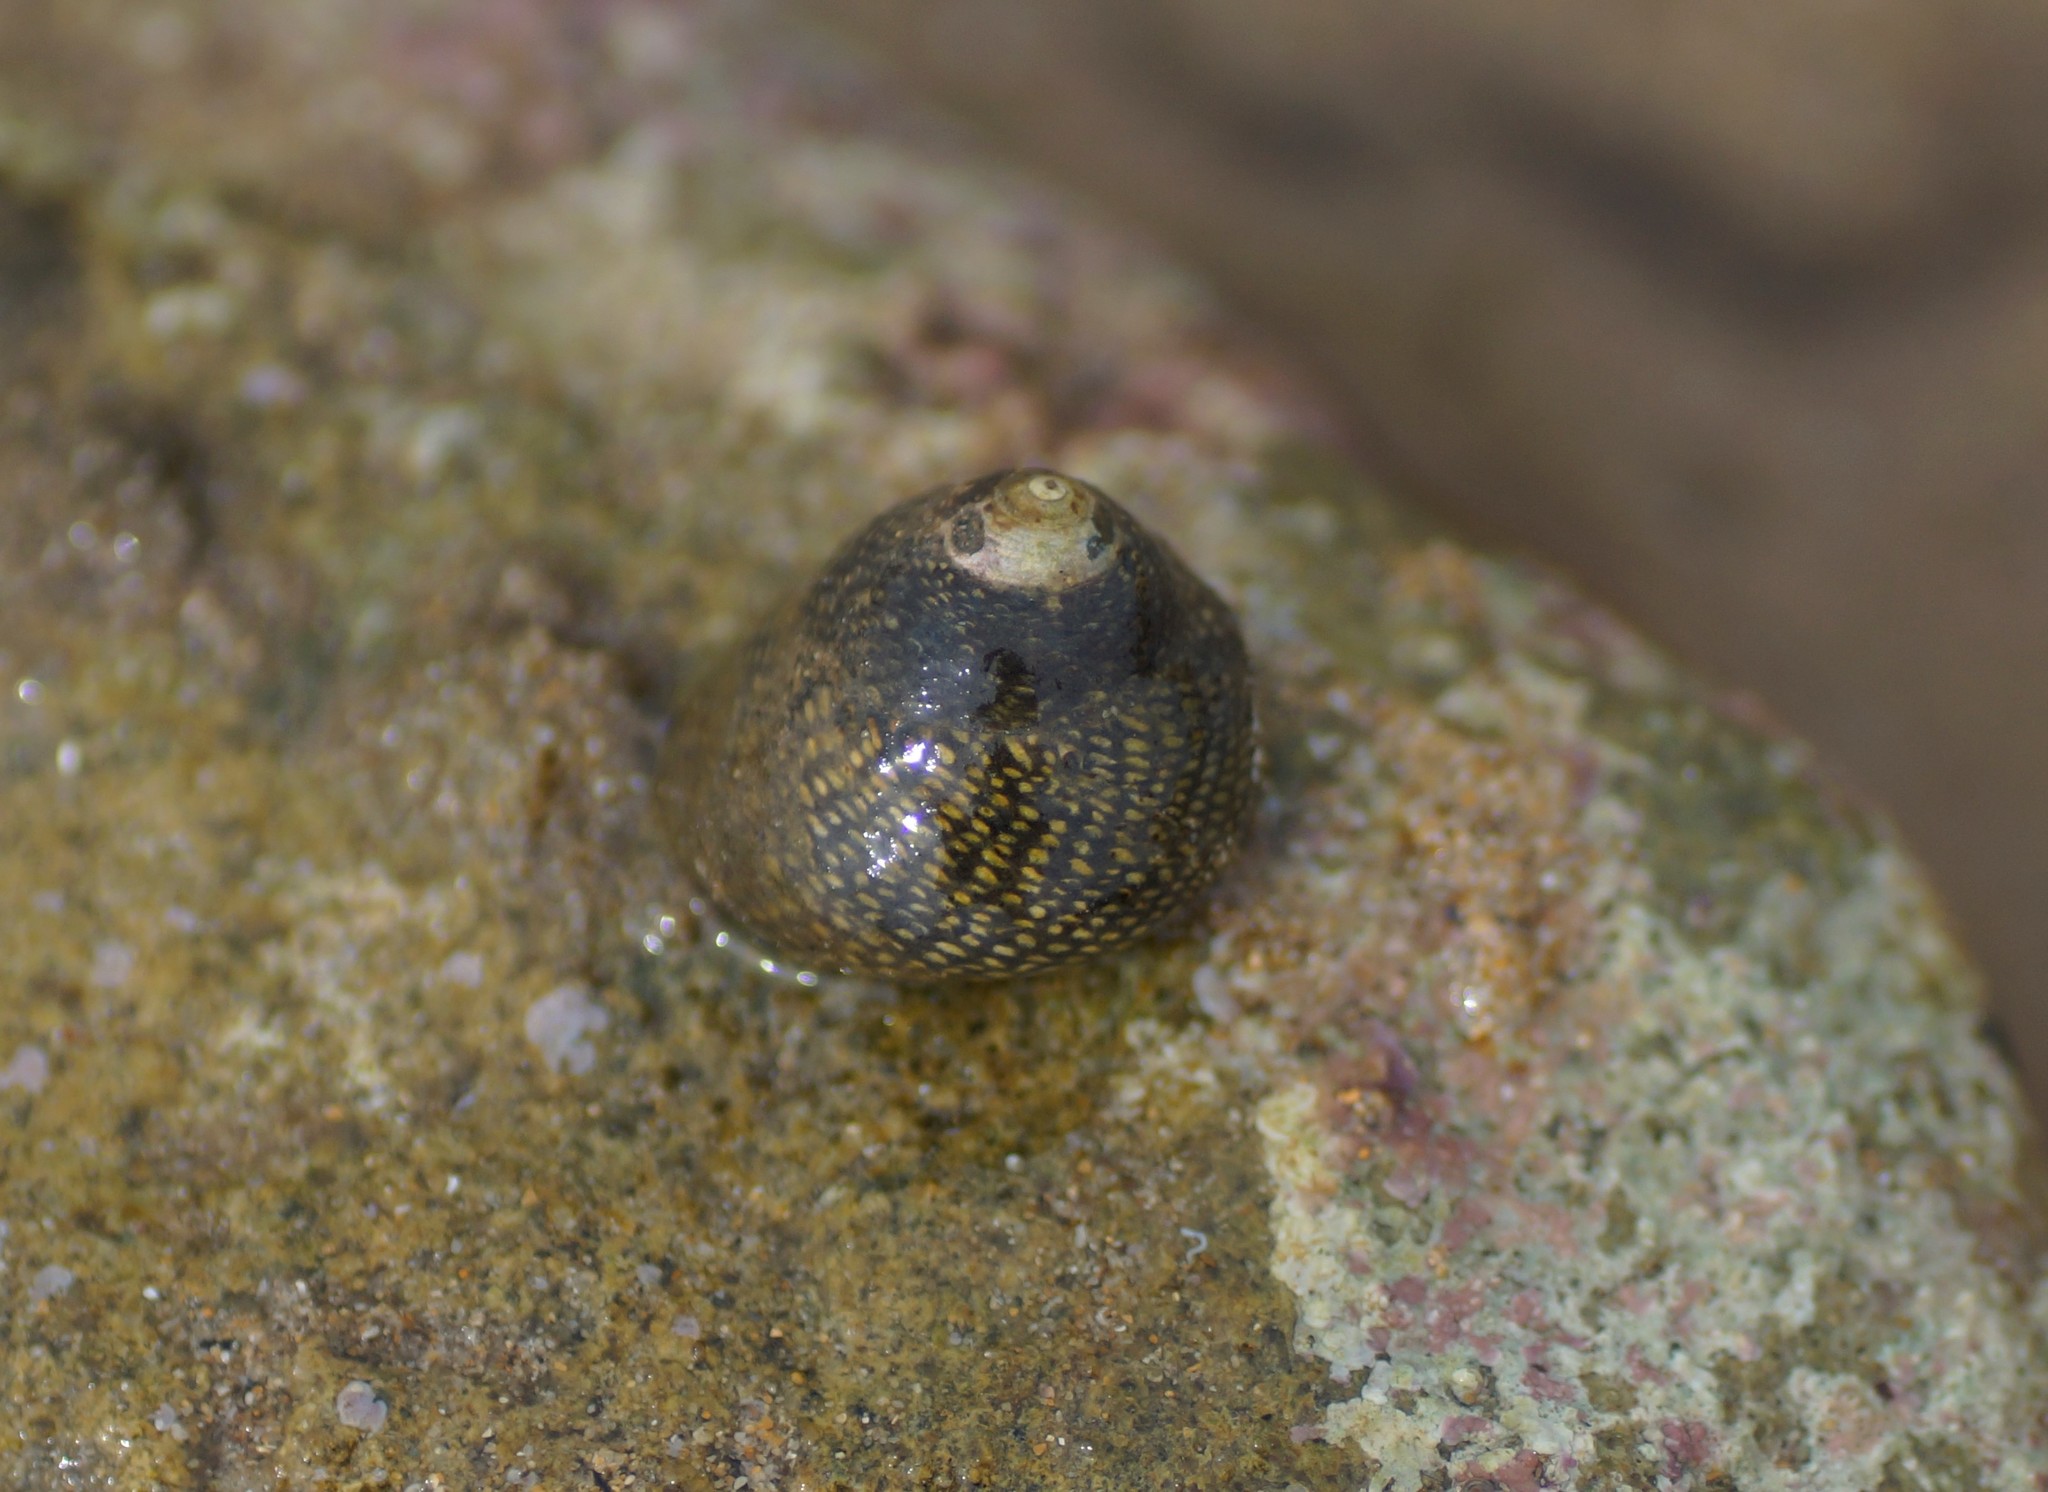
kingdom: Animalia
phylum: Mollusca
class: Gastropoda
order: Trochida
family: Trochidae
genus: Chlorodiloma
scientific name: Chlorodiloma odontis
